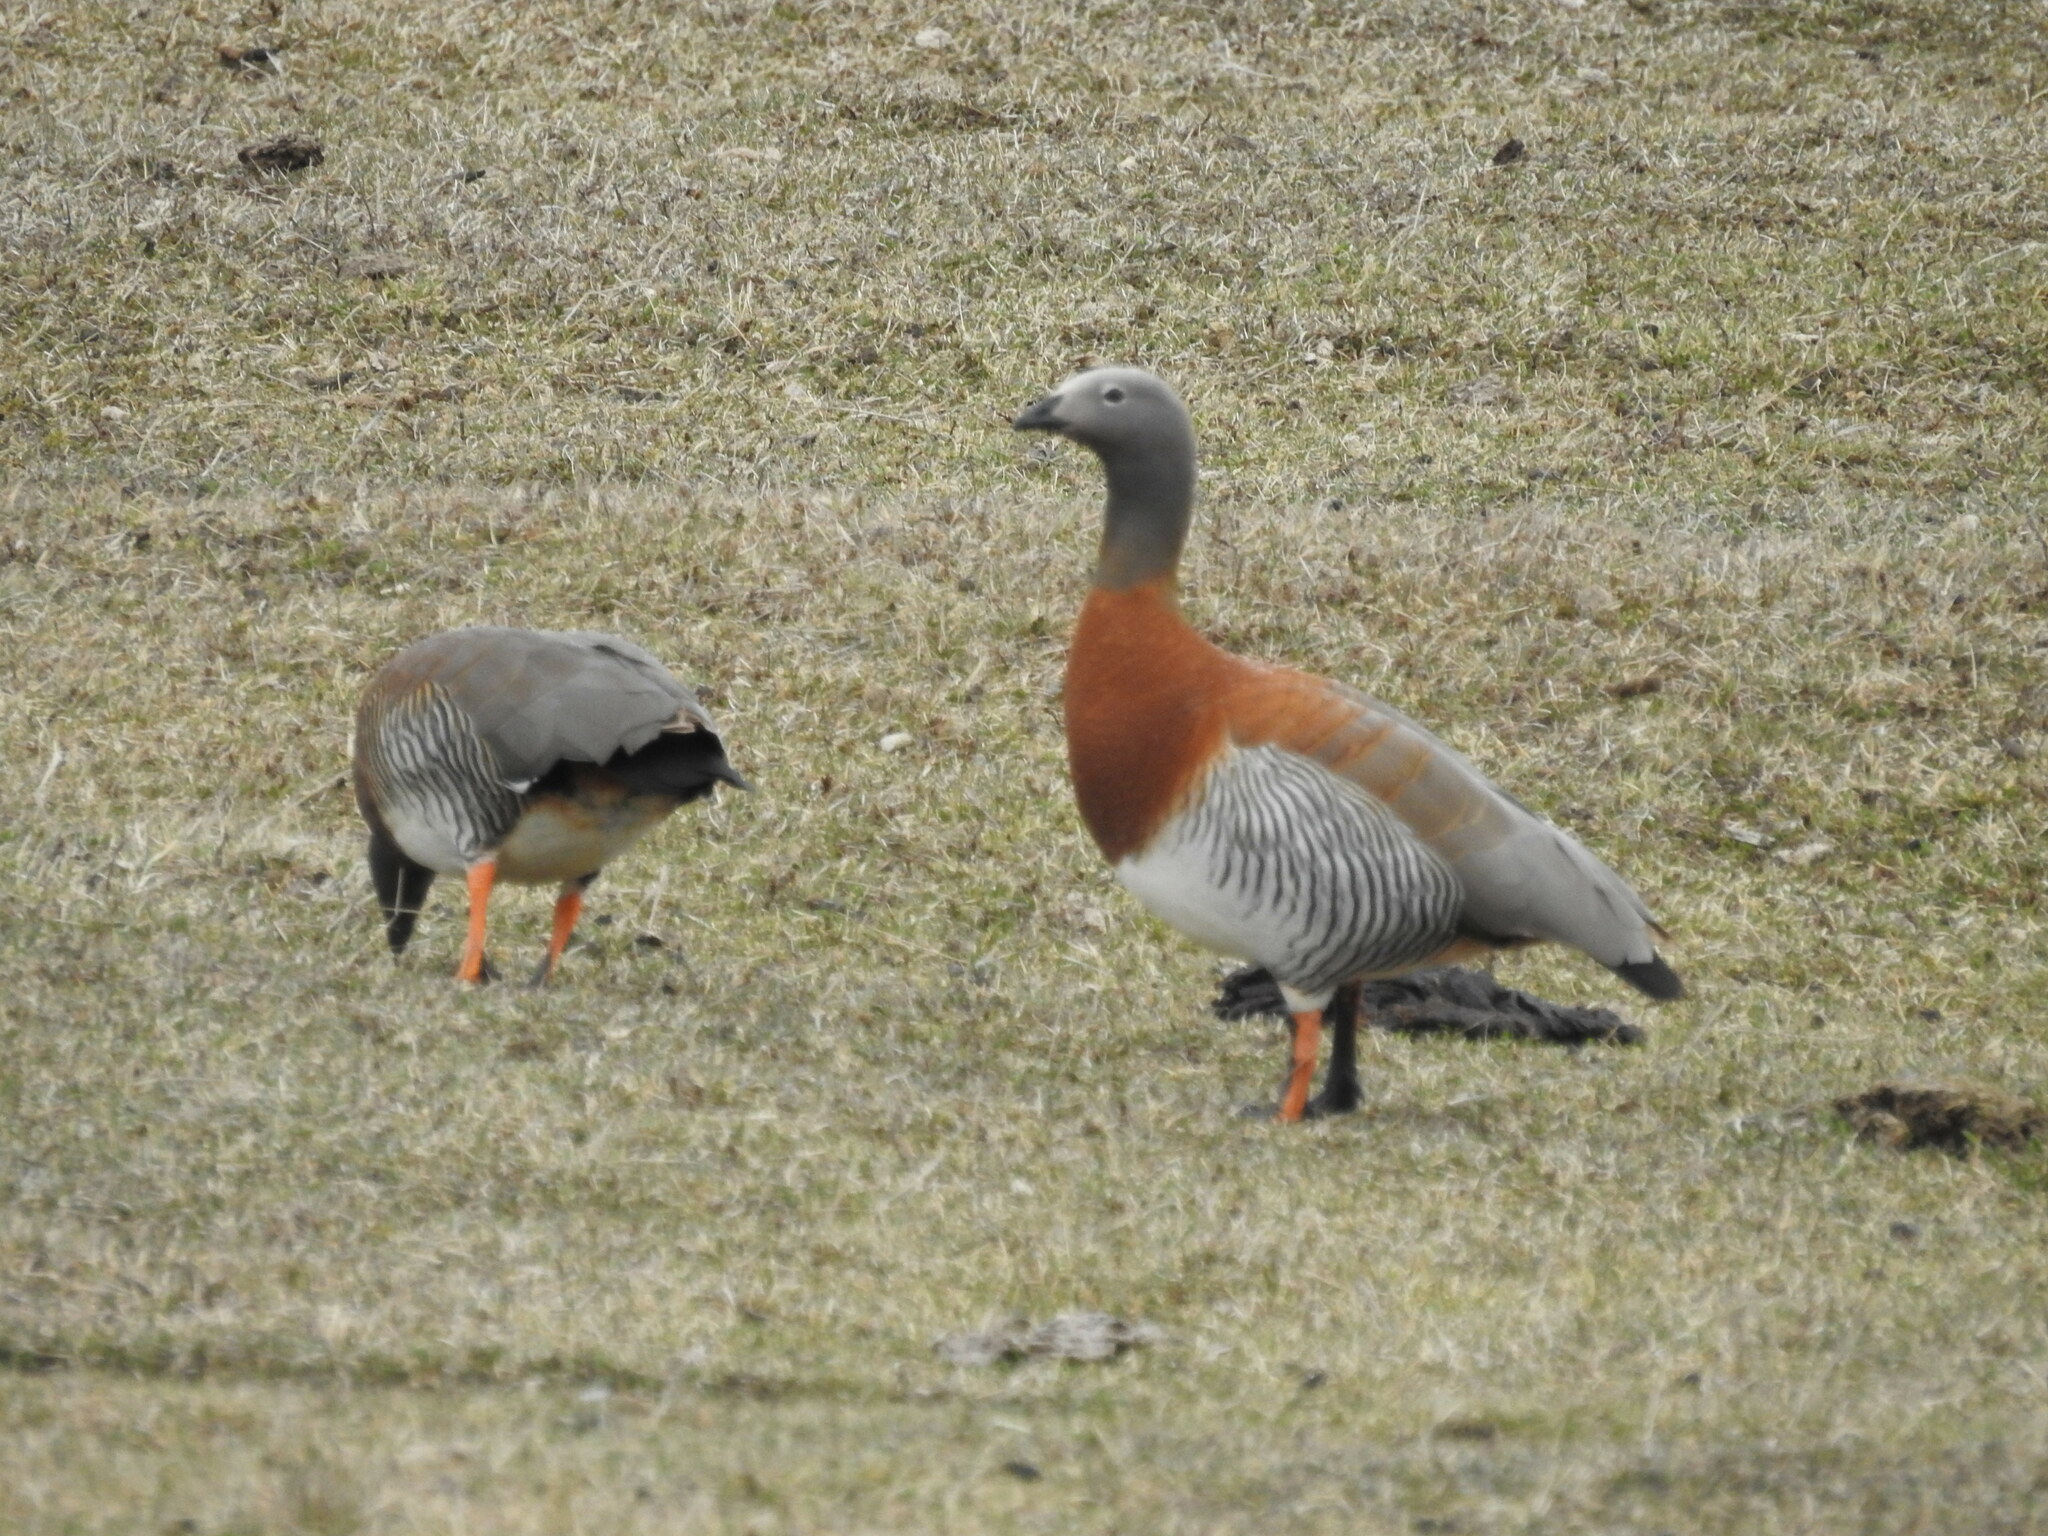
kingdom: Animalia
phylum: Chordata
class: Aves
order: Anseriformes
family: Anatidae
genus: Chloephaga
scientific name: Chloephaga poliocephala
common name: Ashy-headed goose
